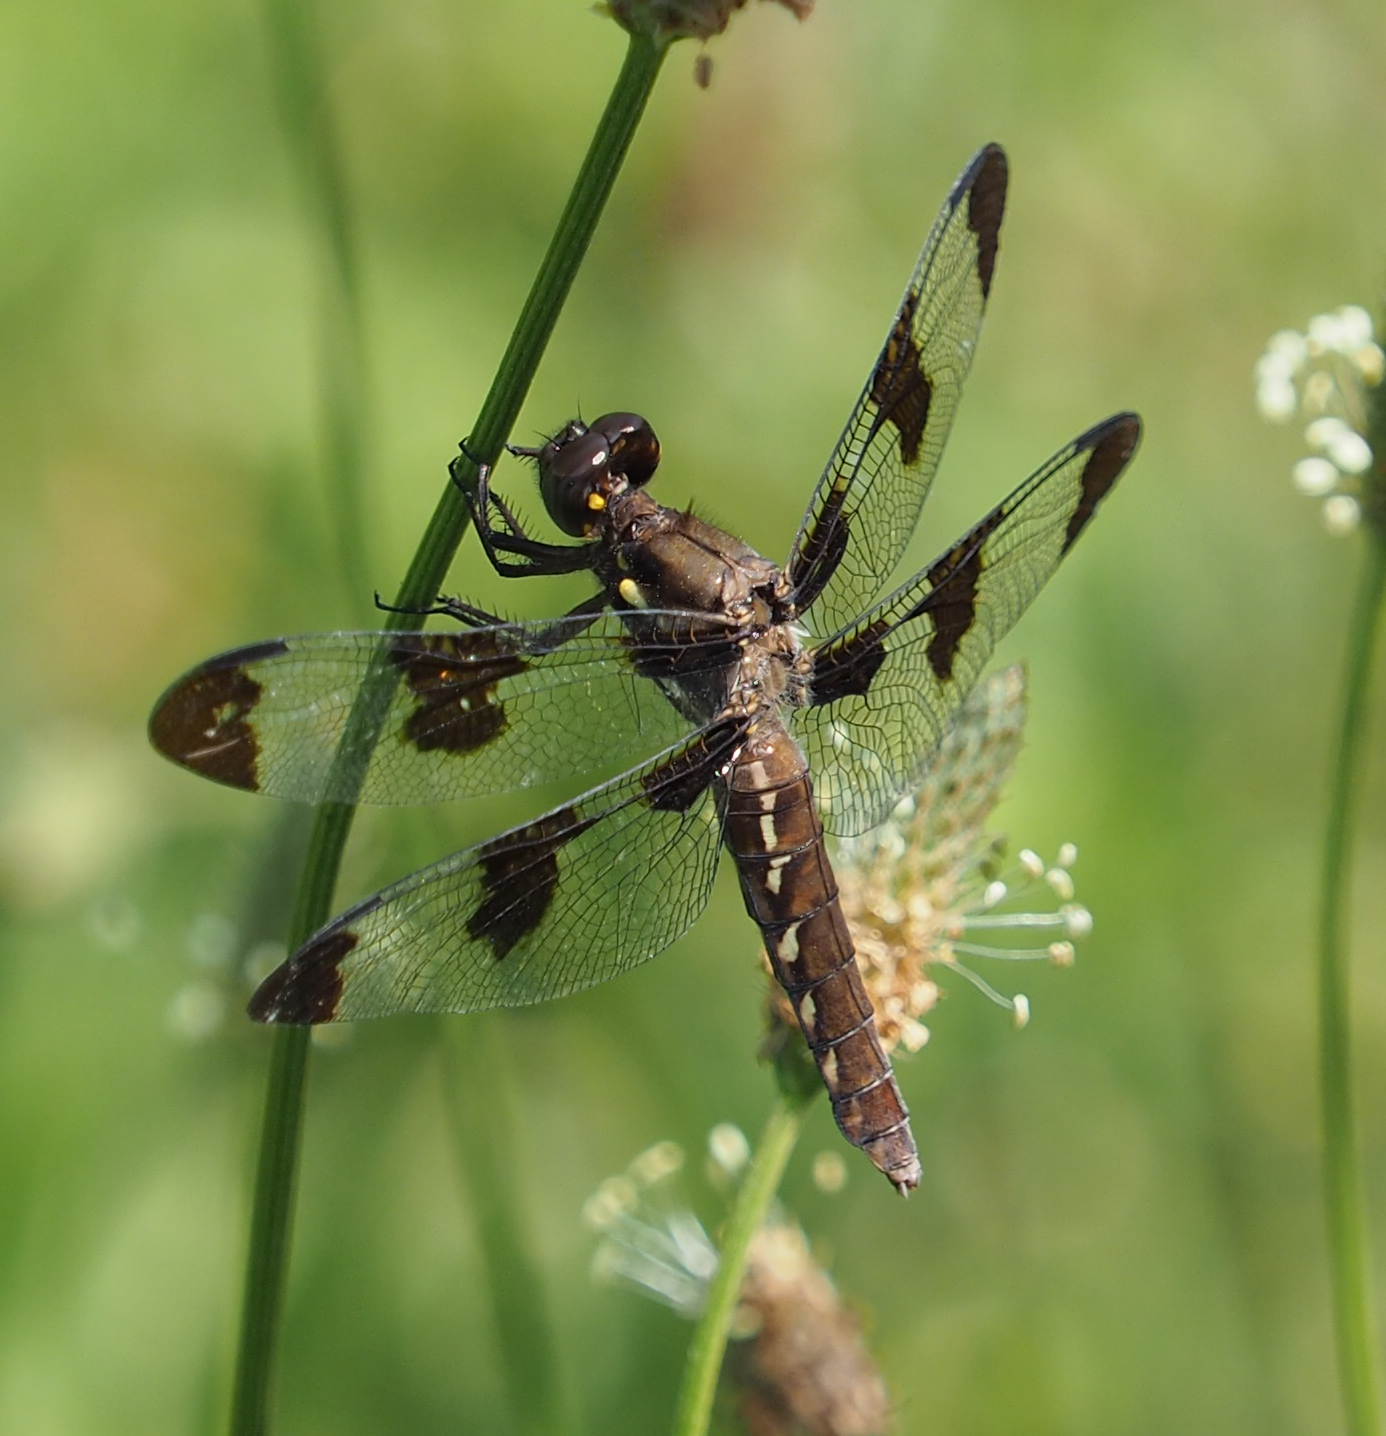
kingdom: Animalia
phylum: Arthropoda
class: Insecta
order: Odonata
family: Libellulidae
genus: Plathemis
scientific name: Plathemis lydia
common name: Common whitetail
